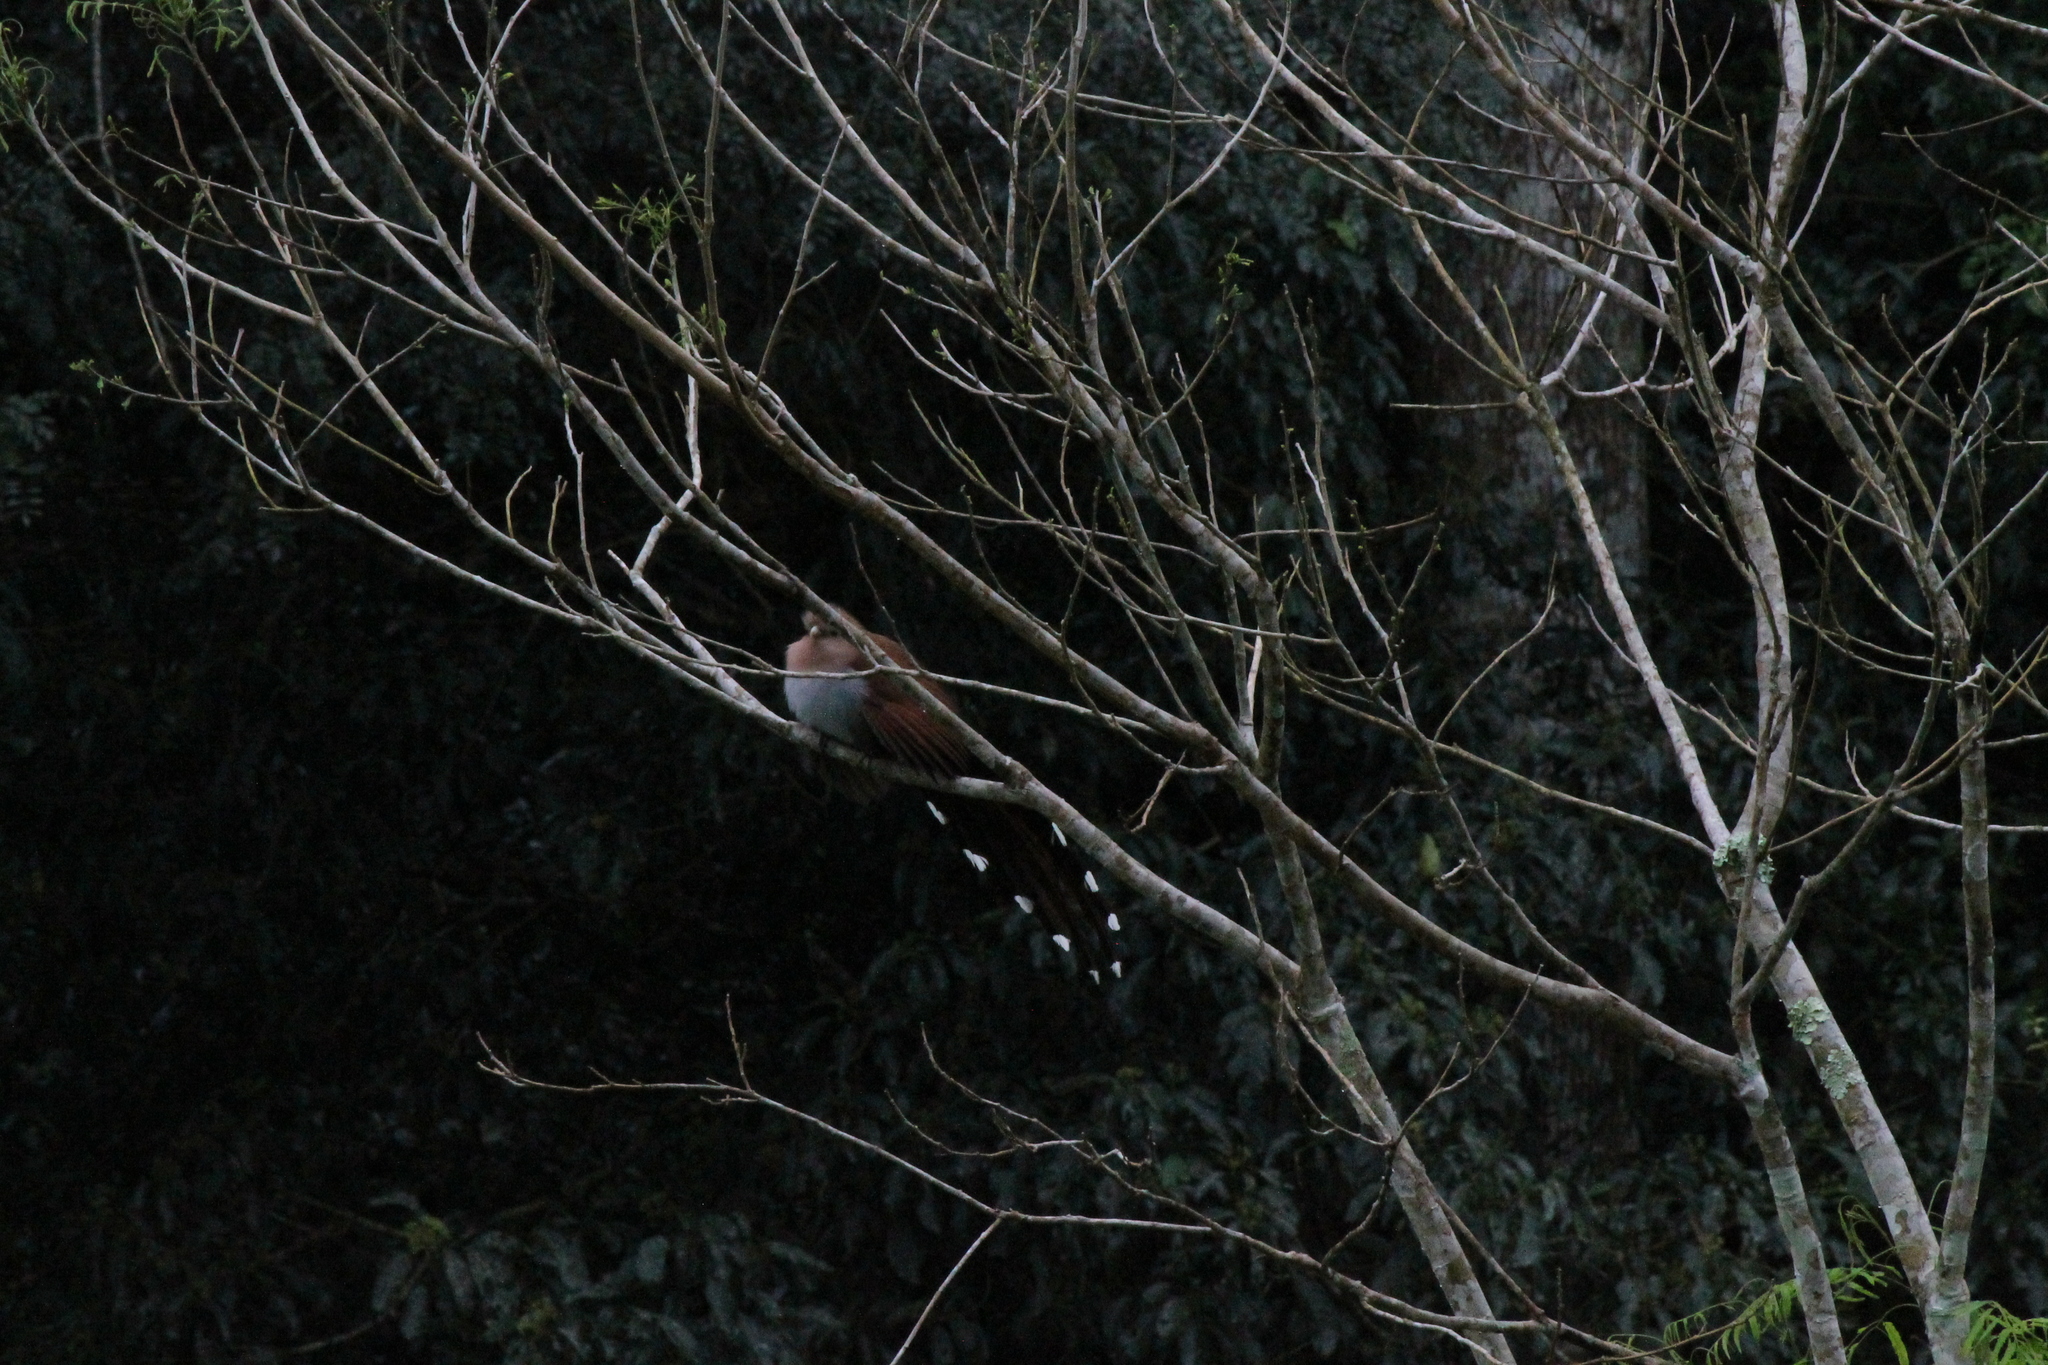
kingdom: Animalia
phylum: Chordata
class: Aves
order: Cuculiformes
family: Cuculidae
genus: Piaya
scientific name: Piaya cayana
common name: Squirrel cuckoo
